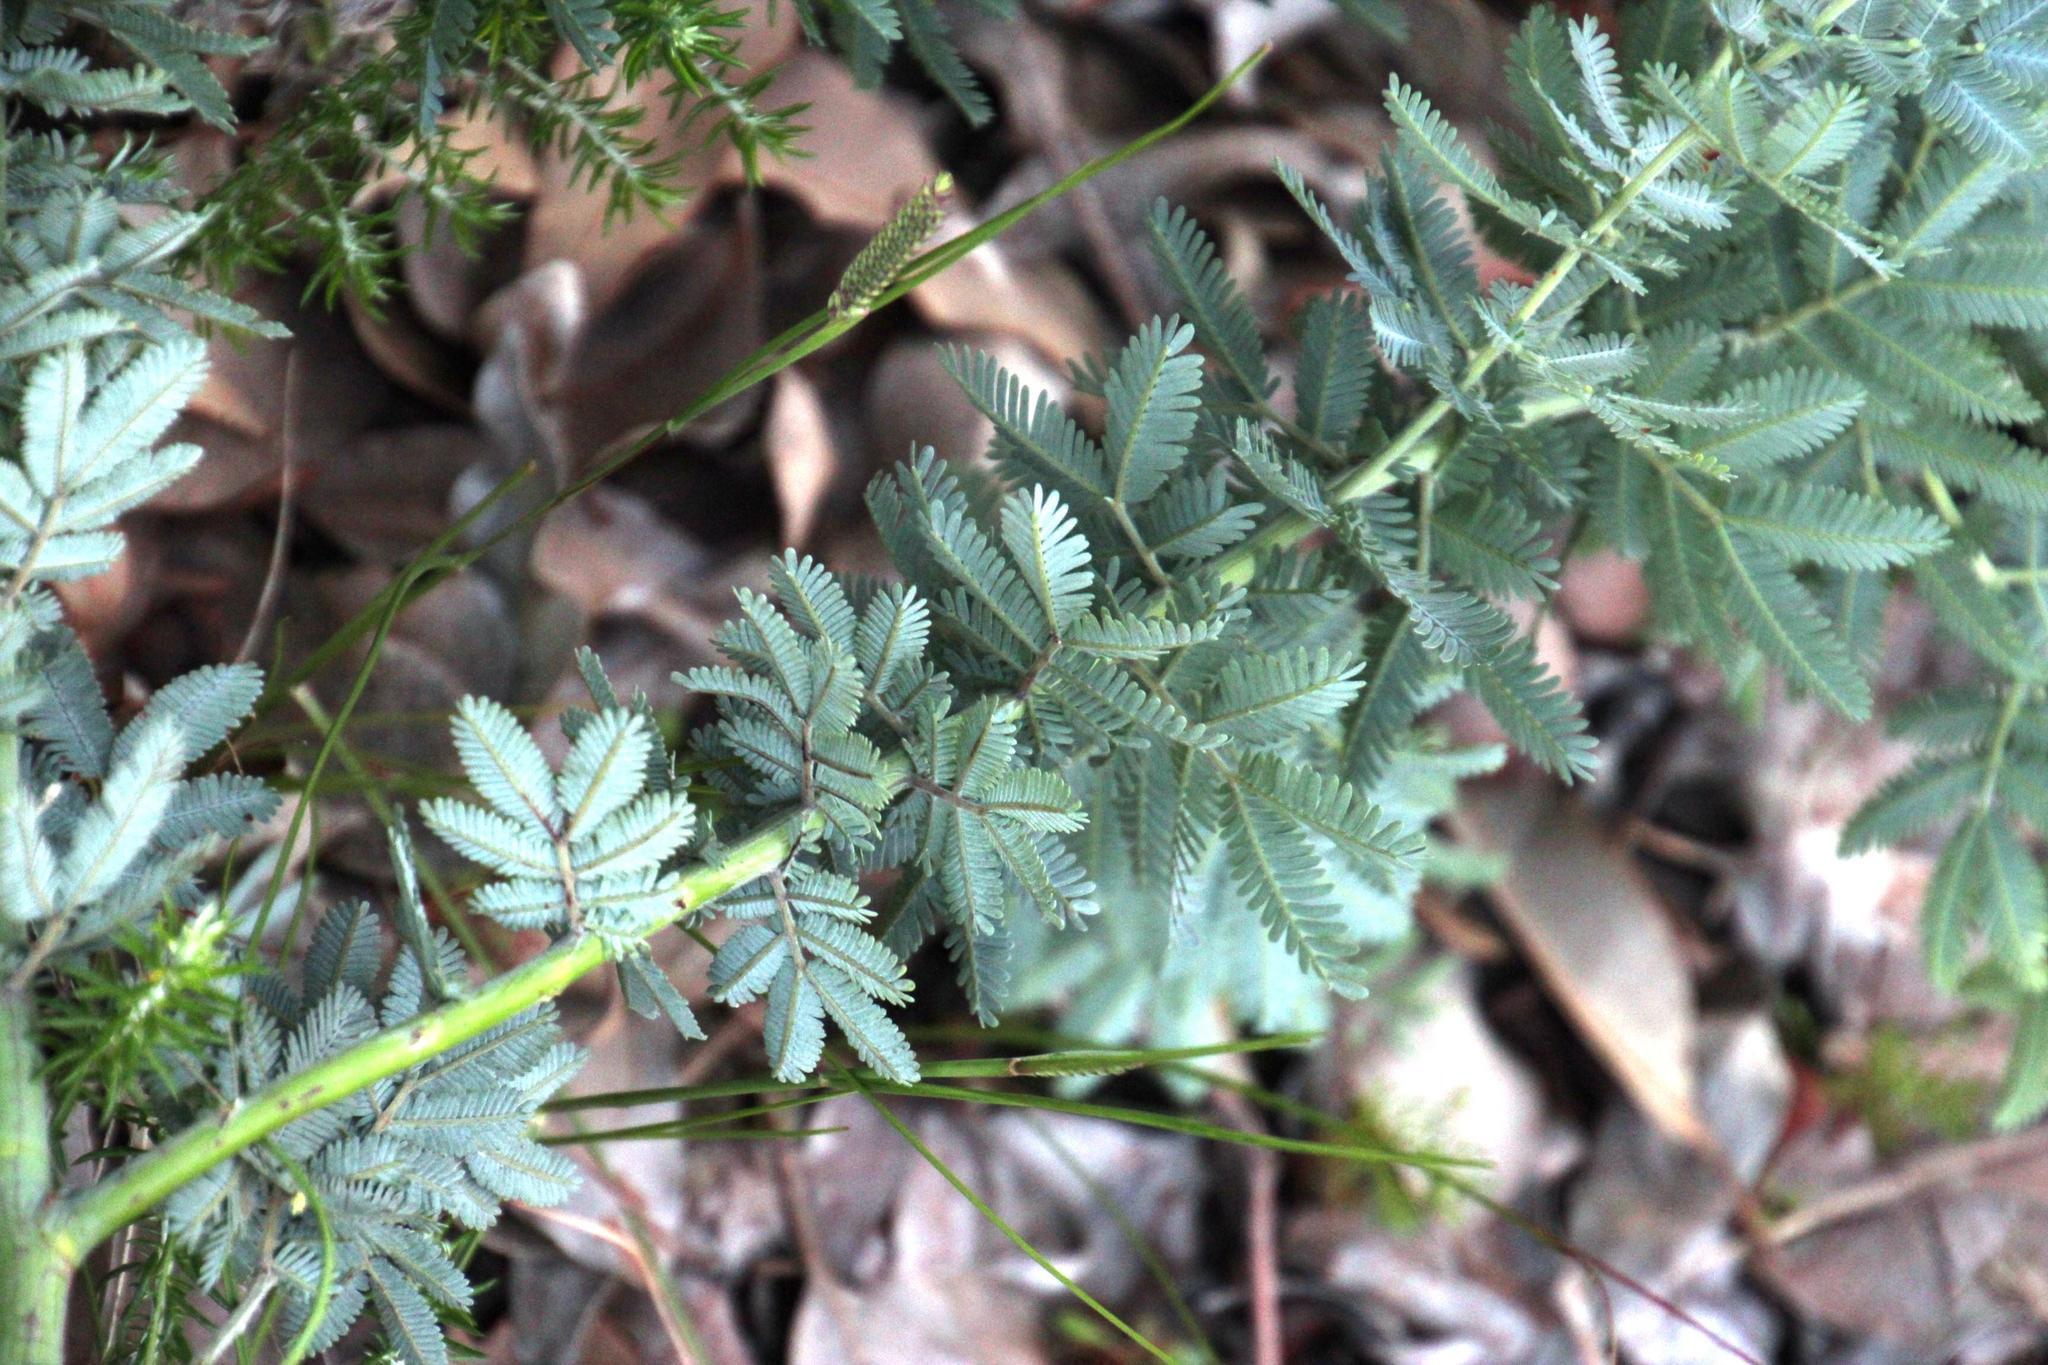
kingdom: Plantae
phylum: Tracheophyta
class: Magnoliopsida
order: Fabales
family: Fabaceae
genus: Acacia
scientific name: Acacia baileyana
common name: Cootamundra wattle
